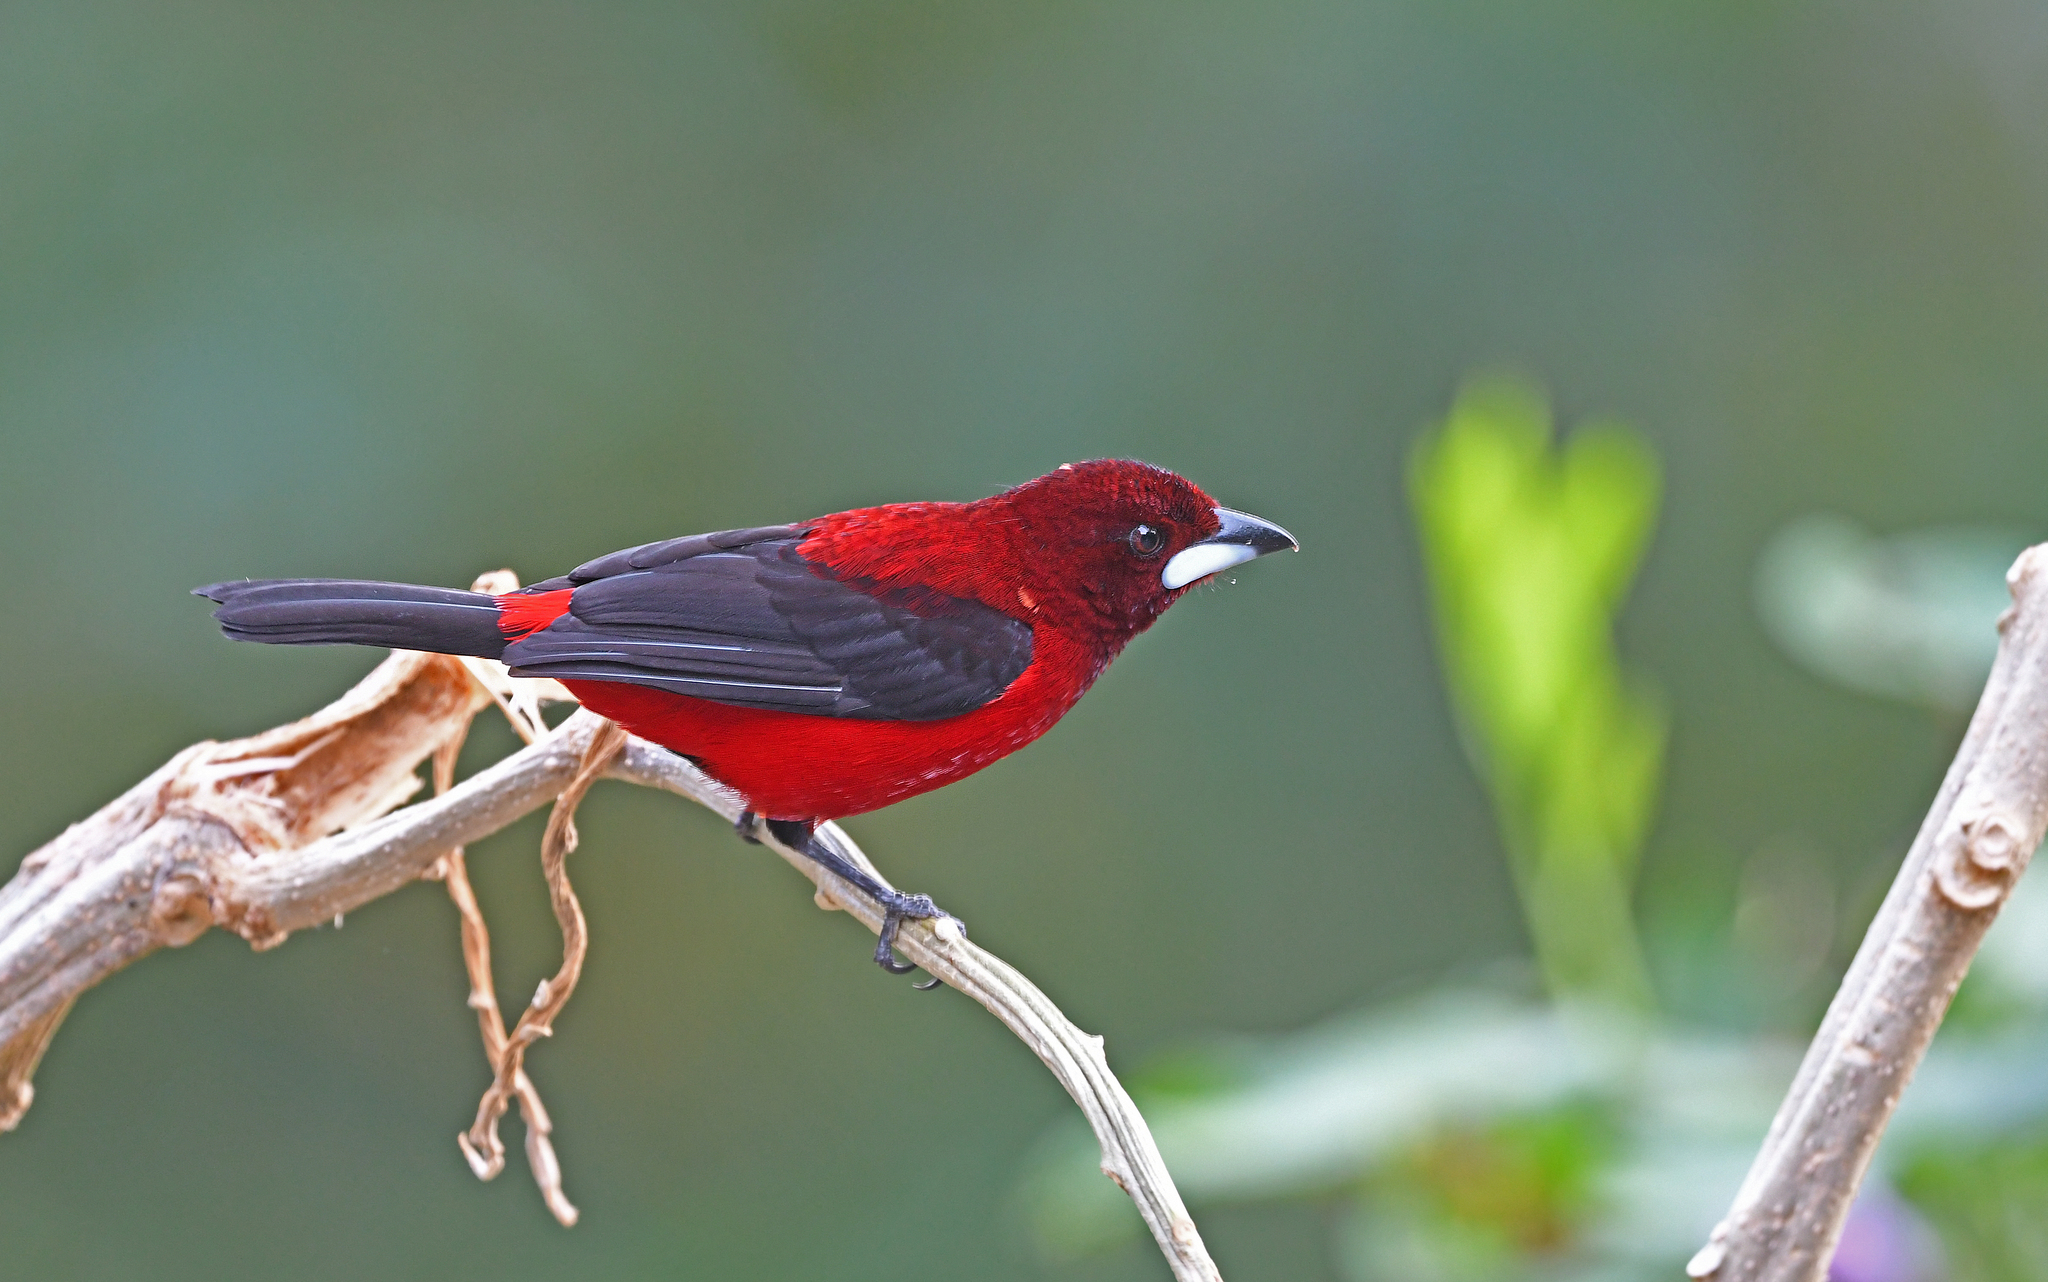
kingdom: Animalia
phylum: Chordata
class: Aves
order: Passeriformes
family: Thraupidae
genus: Ramphocelus
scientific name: Ramphocelus dimidiatus
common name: Crimson-backed tanager
